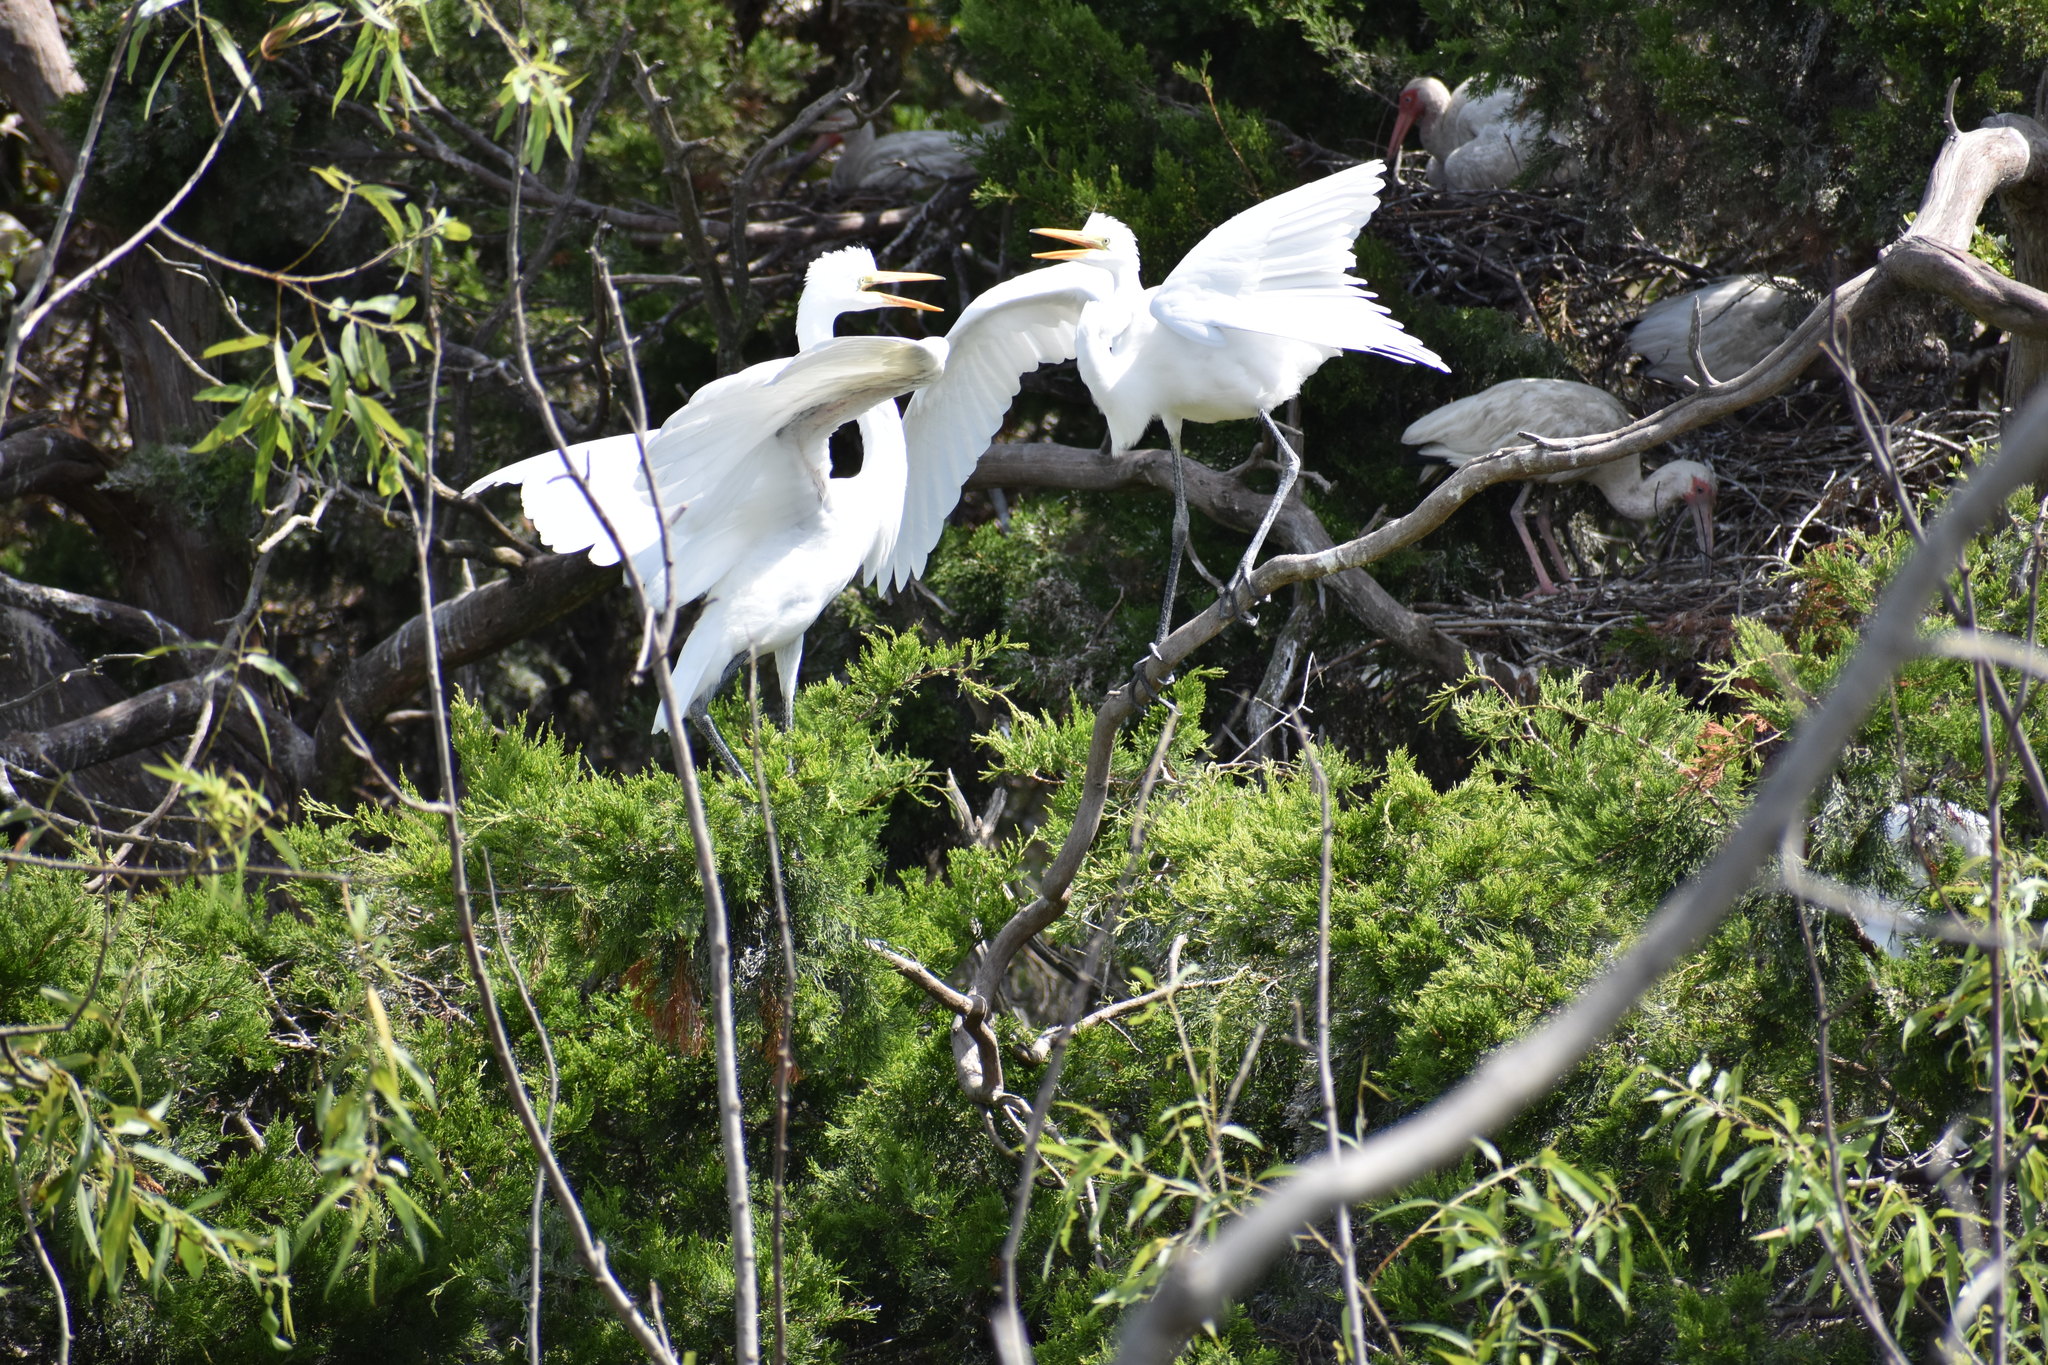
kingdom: Animalia
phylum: Chordata
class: Aves
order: Pelecaniformes
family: Ardeidae
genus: Ardea
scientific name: Ardea alba
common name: Great egret
